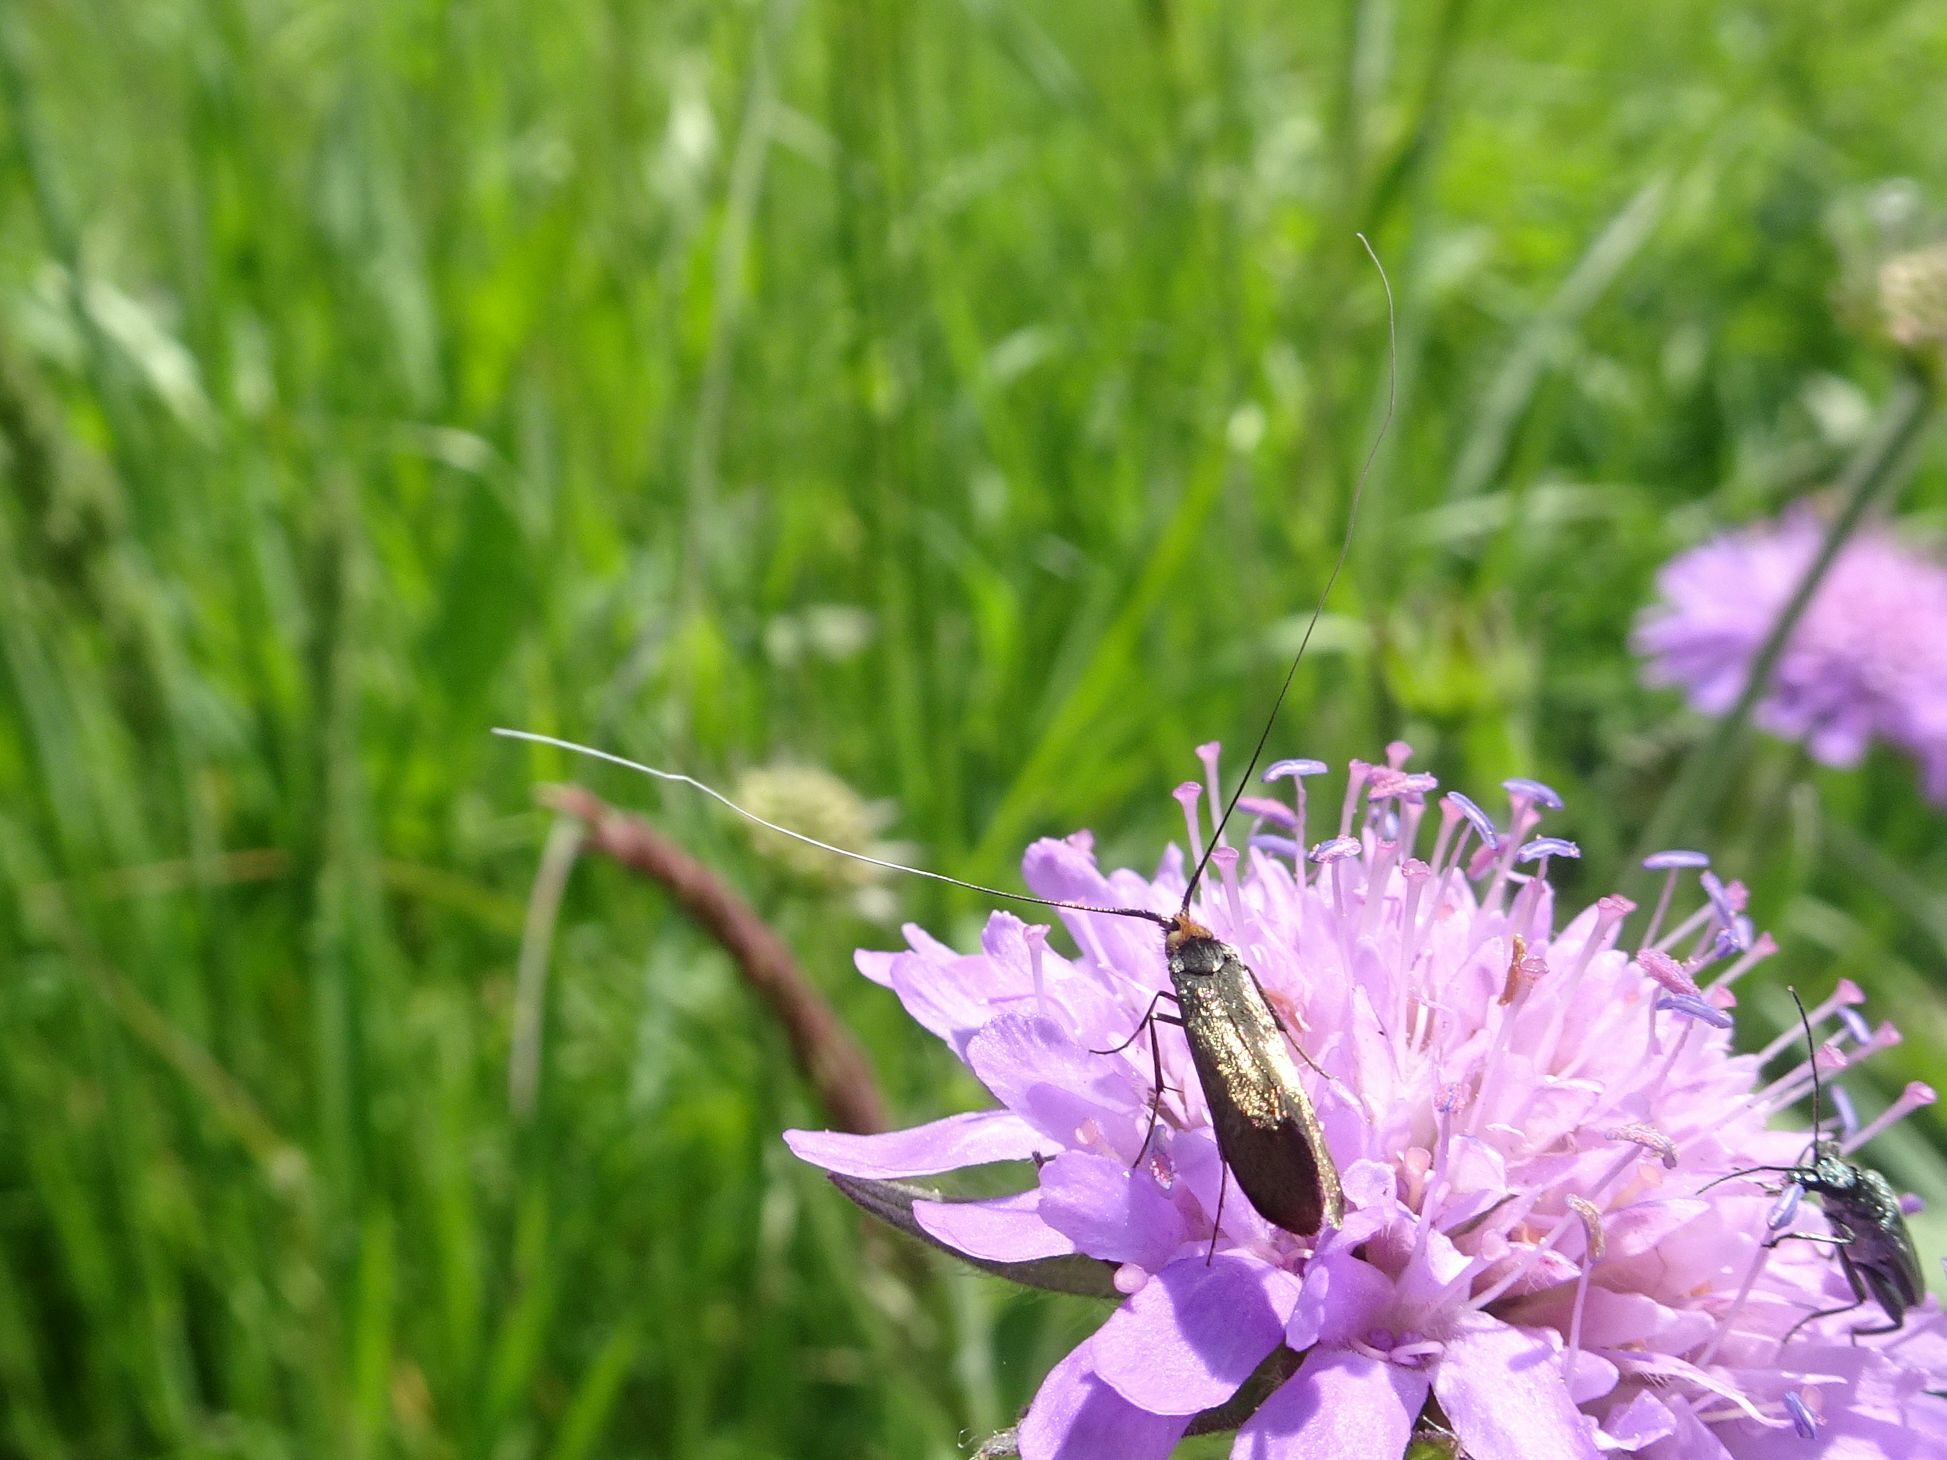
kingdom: Animalia
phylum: Arthropoda
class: Insecta
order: Lepidoptera
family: Adelidae
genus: Nemophora
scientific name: Nemophora metallica
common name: Brassy long-horn
